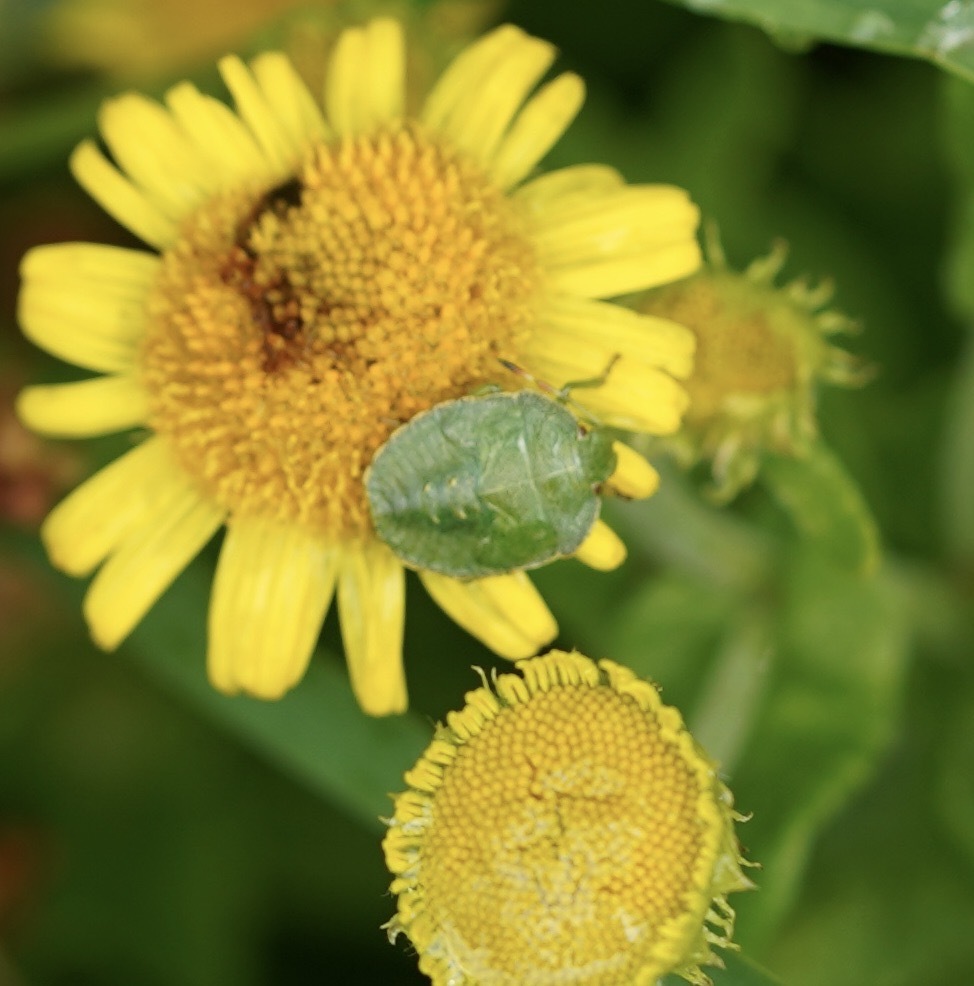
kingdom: Animalia
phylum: Arthropoda
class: Insecta
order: Hemiptera
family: Pentatomidae
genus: Palomena
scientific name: Palomena prasina
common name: Green shieldbug
